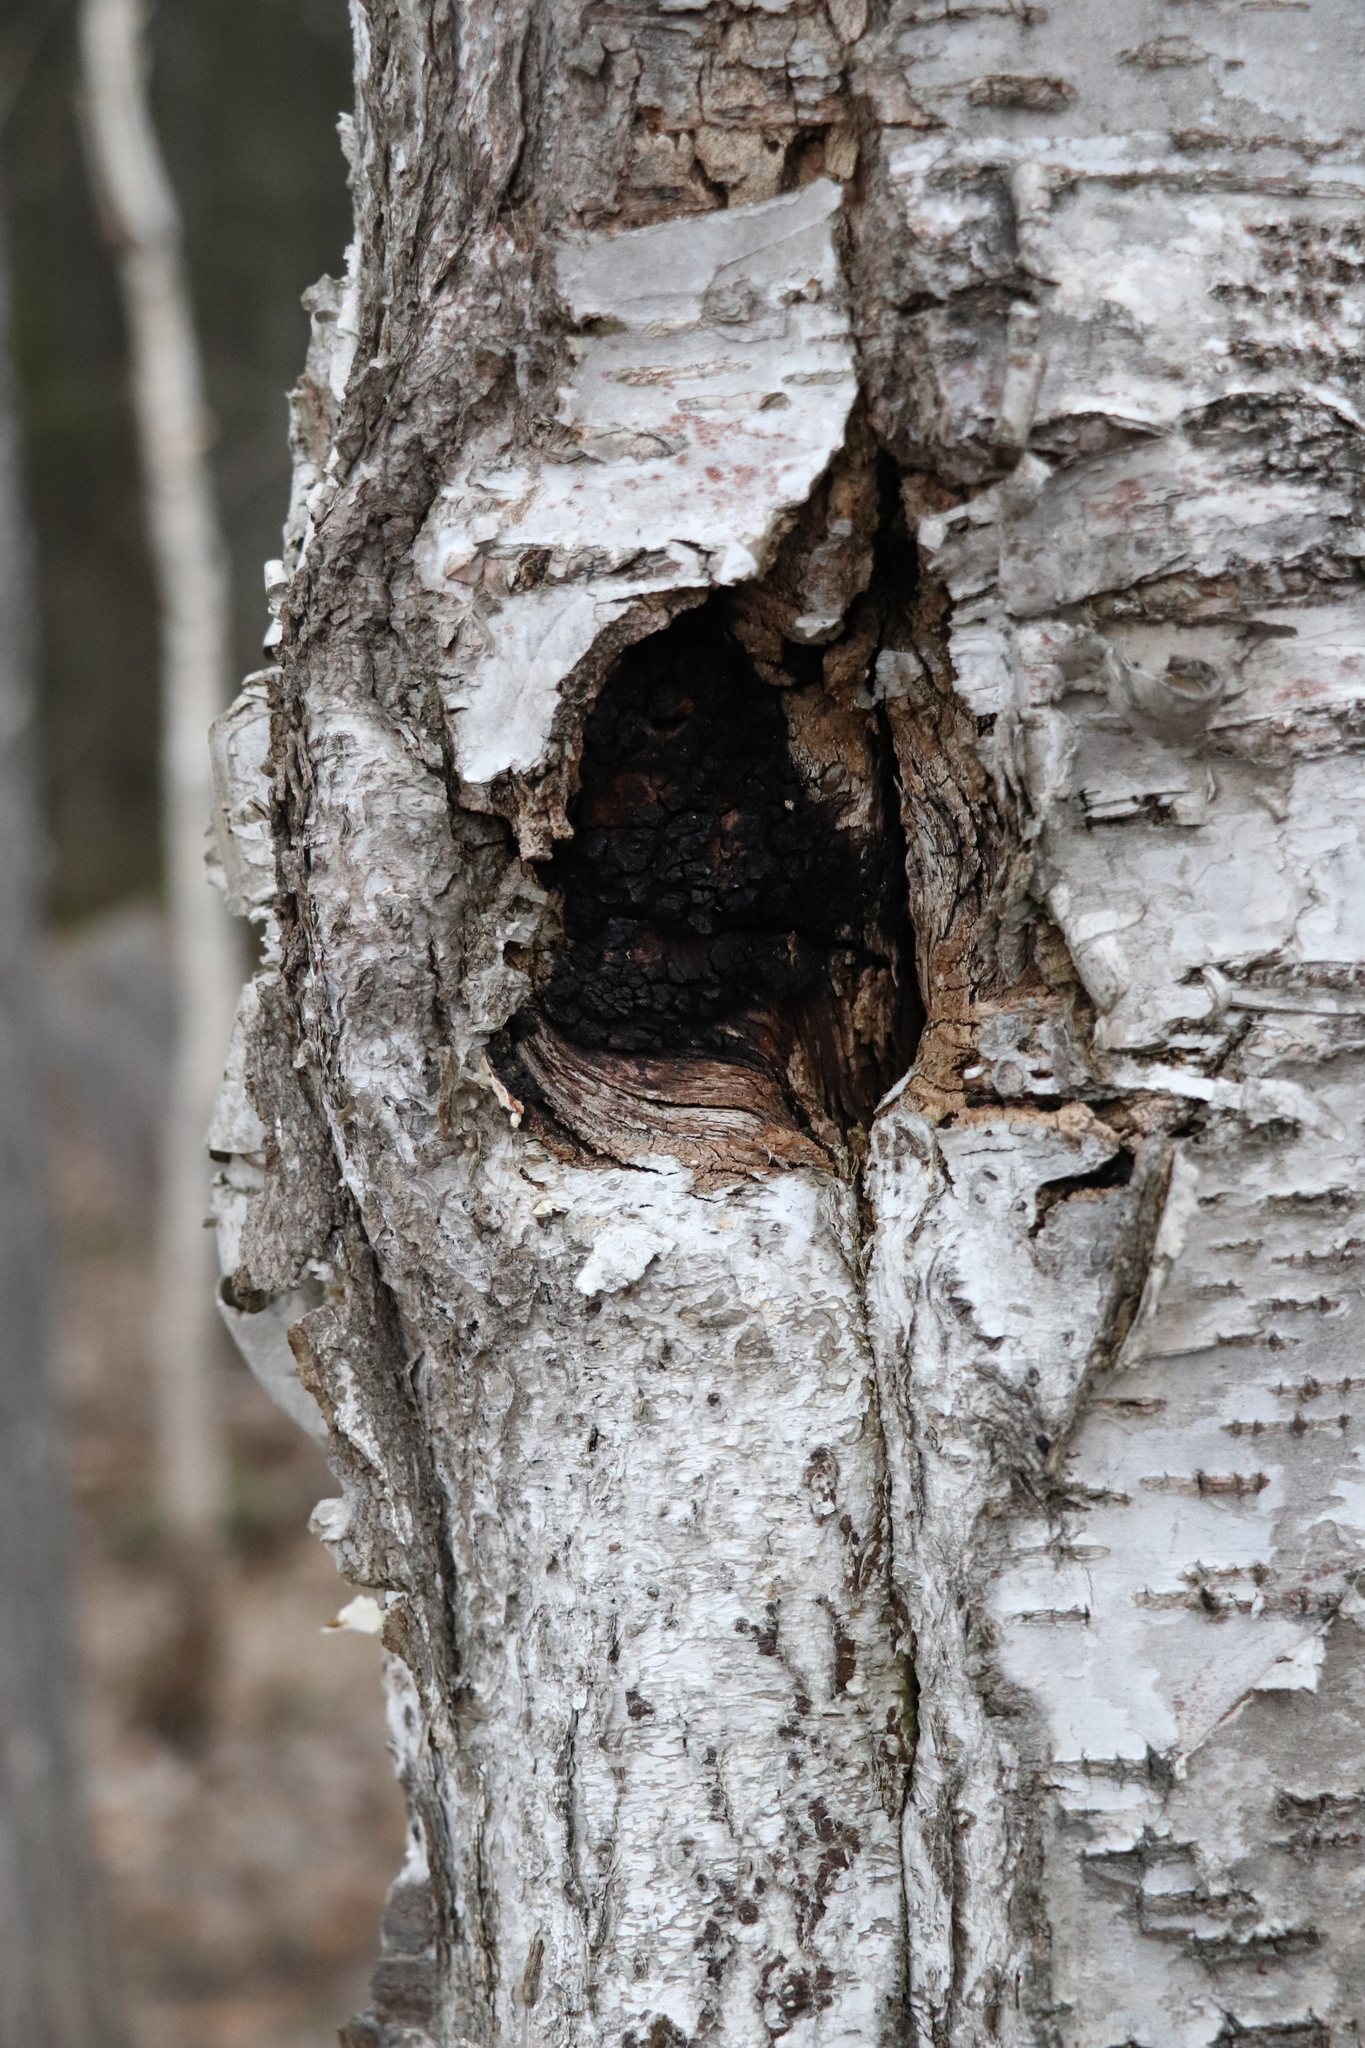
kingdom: Fungi
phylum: Basidiomycota
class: Agaricomycetes
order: Hymenochaetales
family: Hymenochaetaceae
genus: Inonotus
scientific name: Inonotus obliquus
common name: Chaga
